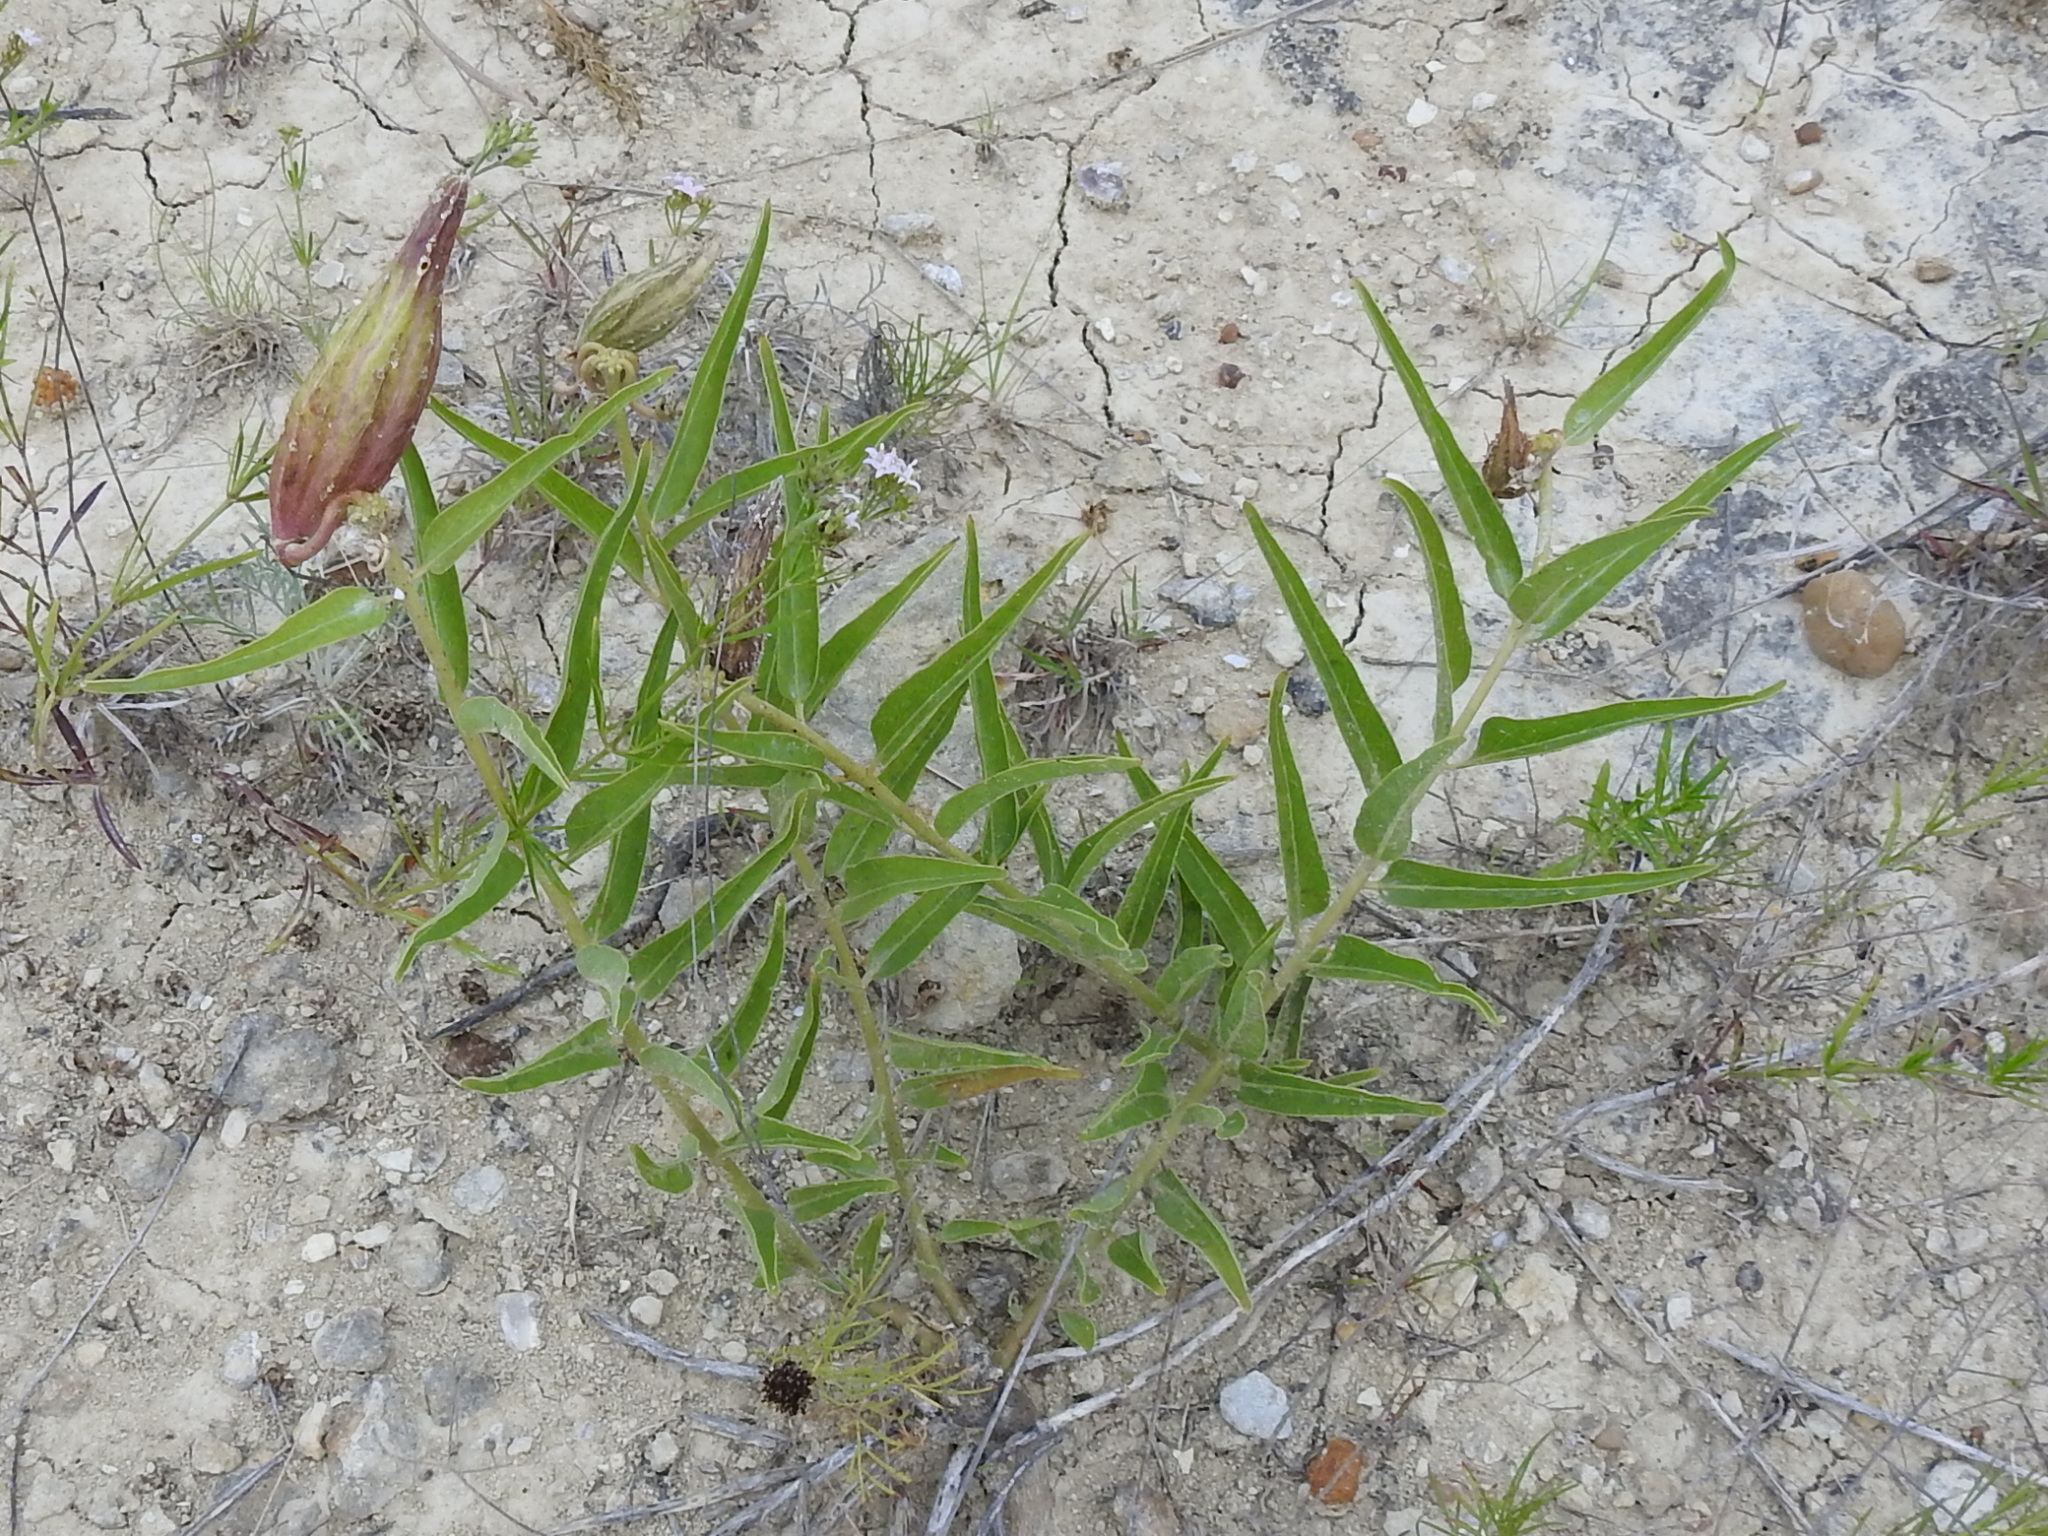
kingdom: Plantae
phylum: Tracheophyta
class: Magnoliopsida
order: Gentianales
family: Apocynaceae
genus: Asclepias
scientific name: Asclepias asperula
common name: Antelope horns
